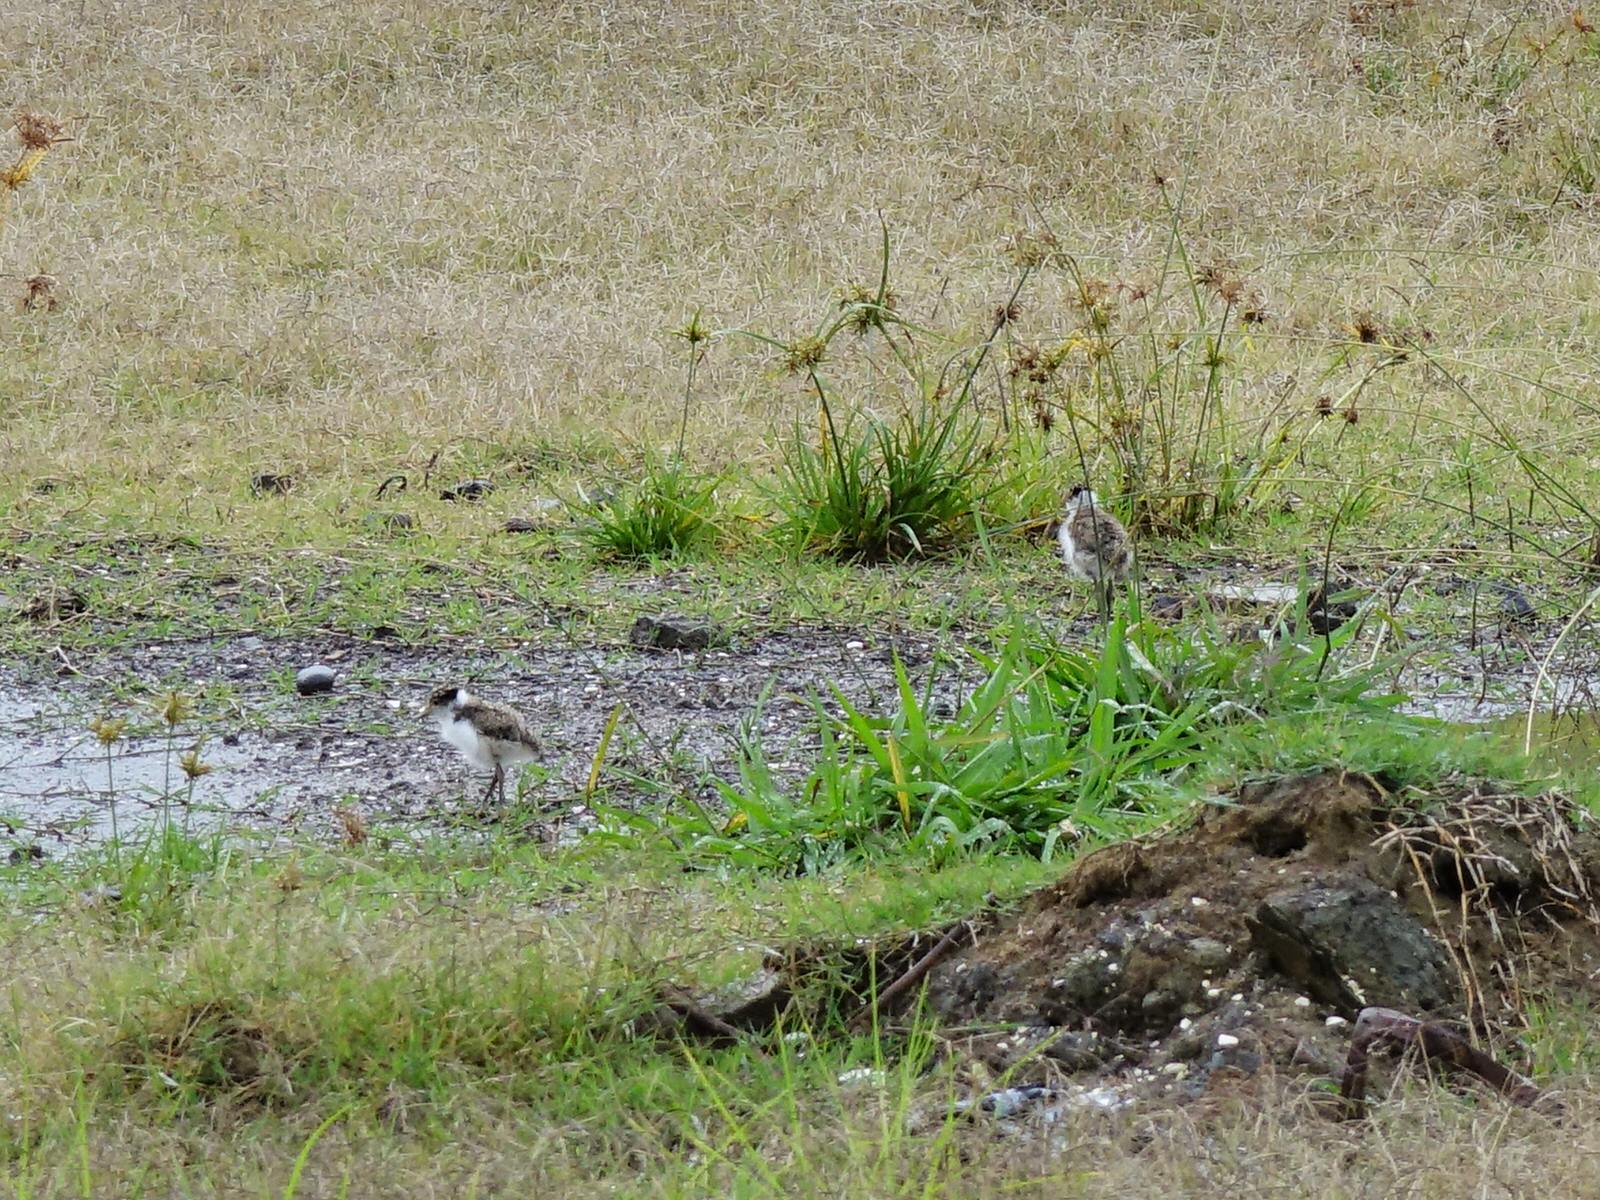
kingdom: Animalia
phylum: Chordata
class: Aves
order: Charadriiformes
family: Charadriidae
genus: Vanellus
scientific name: Vanellus miles
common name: Masked lapwing
